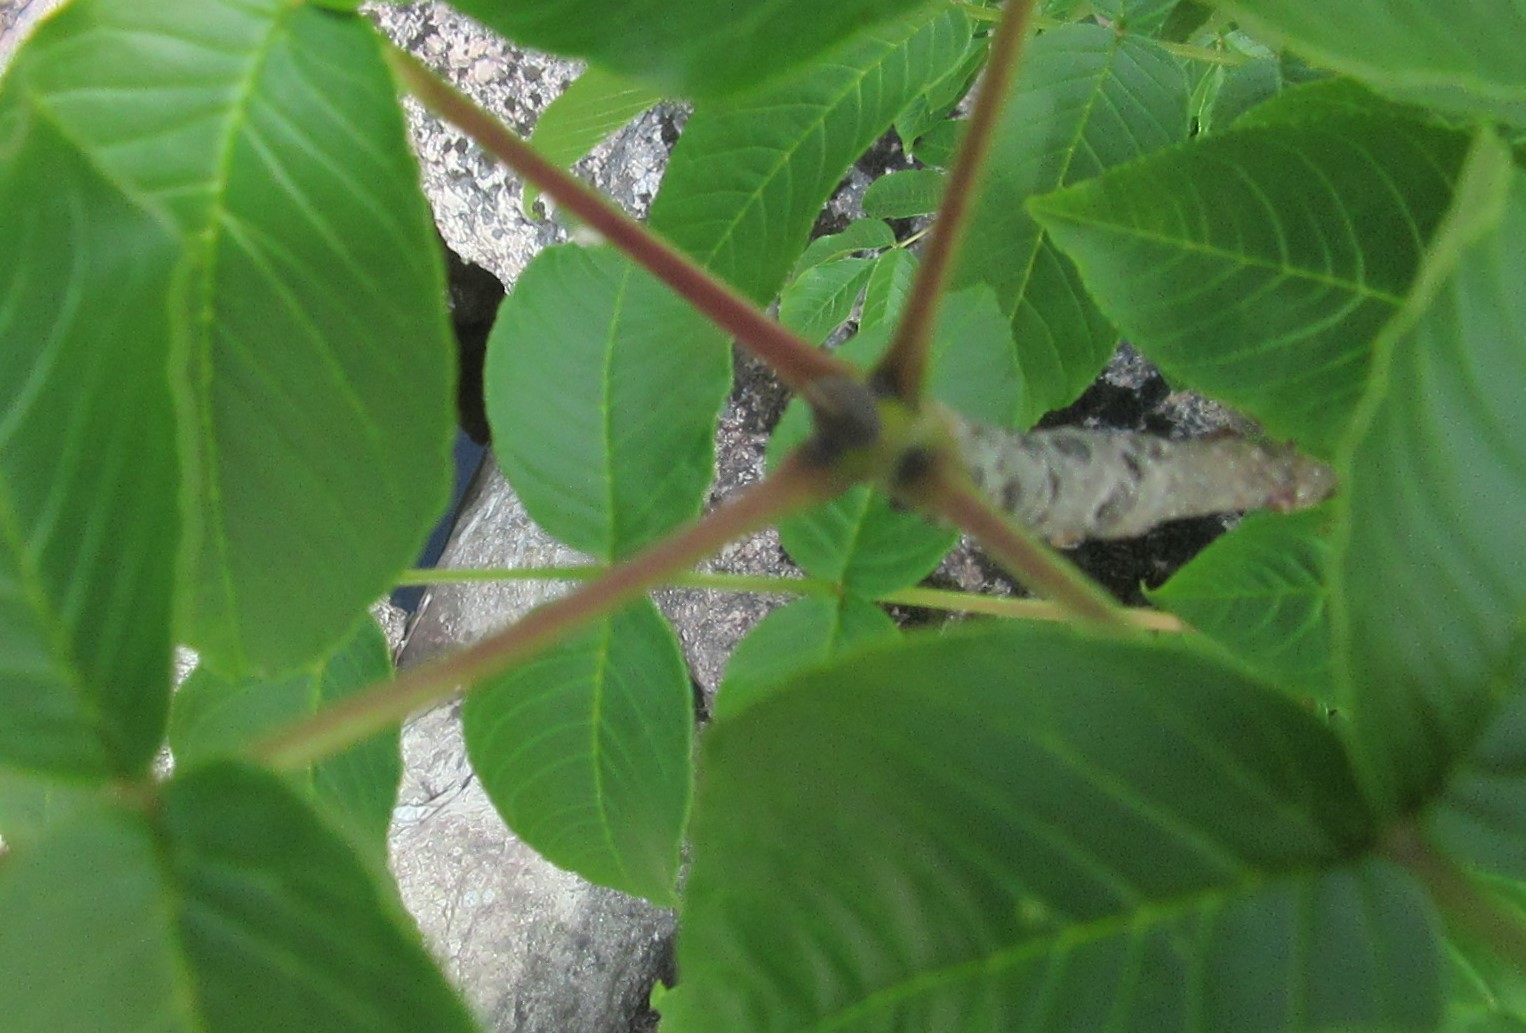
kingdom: Plantae
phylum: Tracheophyta
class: Magnoliopsida
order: Lamiales
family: Oleaceae
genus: Fraxinus
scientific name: Fraxinus nigra
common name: Black ash
